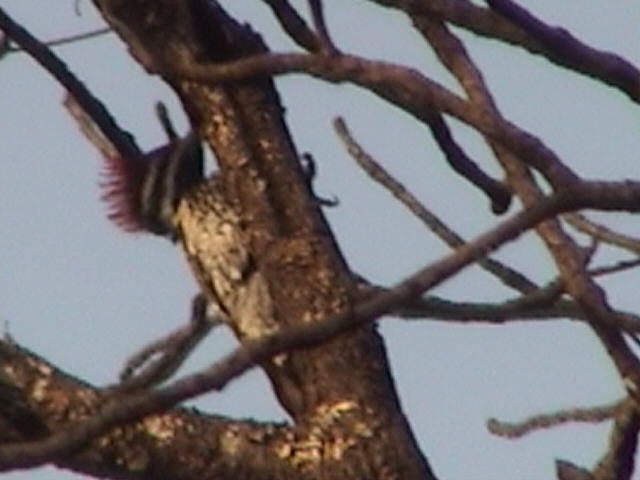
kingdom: Animalia
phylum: Chordata
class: Aves
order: Piciformes
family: Picidae
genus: Dinopium
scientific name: Dinopium benghalense
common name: Black-rumped flameback
